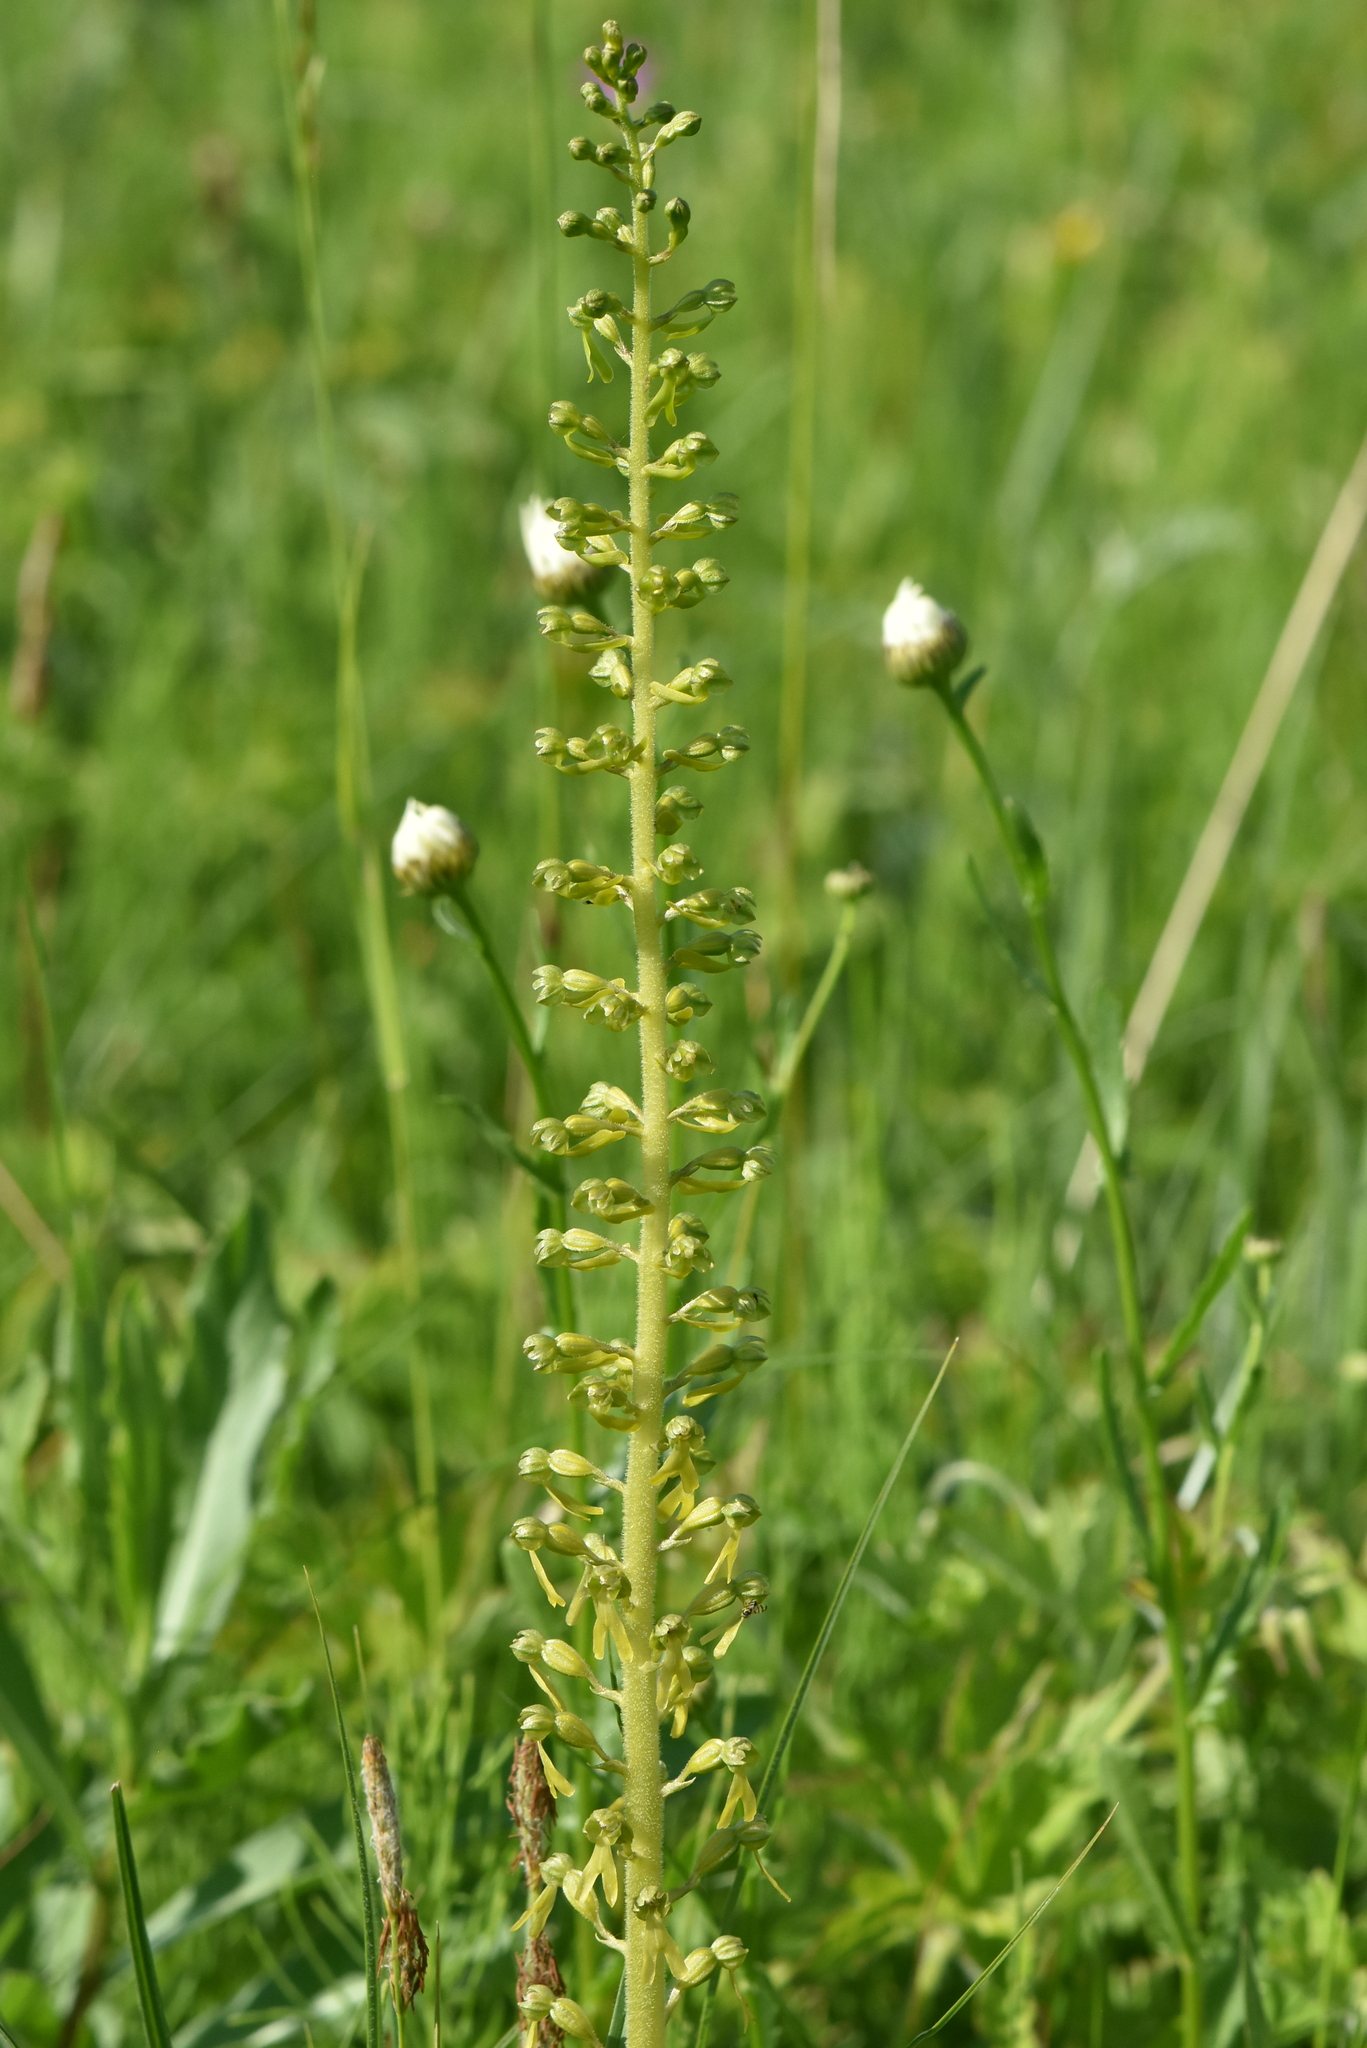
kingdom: Plantae
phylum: Tracheophyta
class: Liliopsida
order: Asparagales
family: Orchidaceae
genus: Neottia
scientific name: Neottia ovata
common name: Common twayblade
